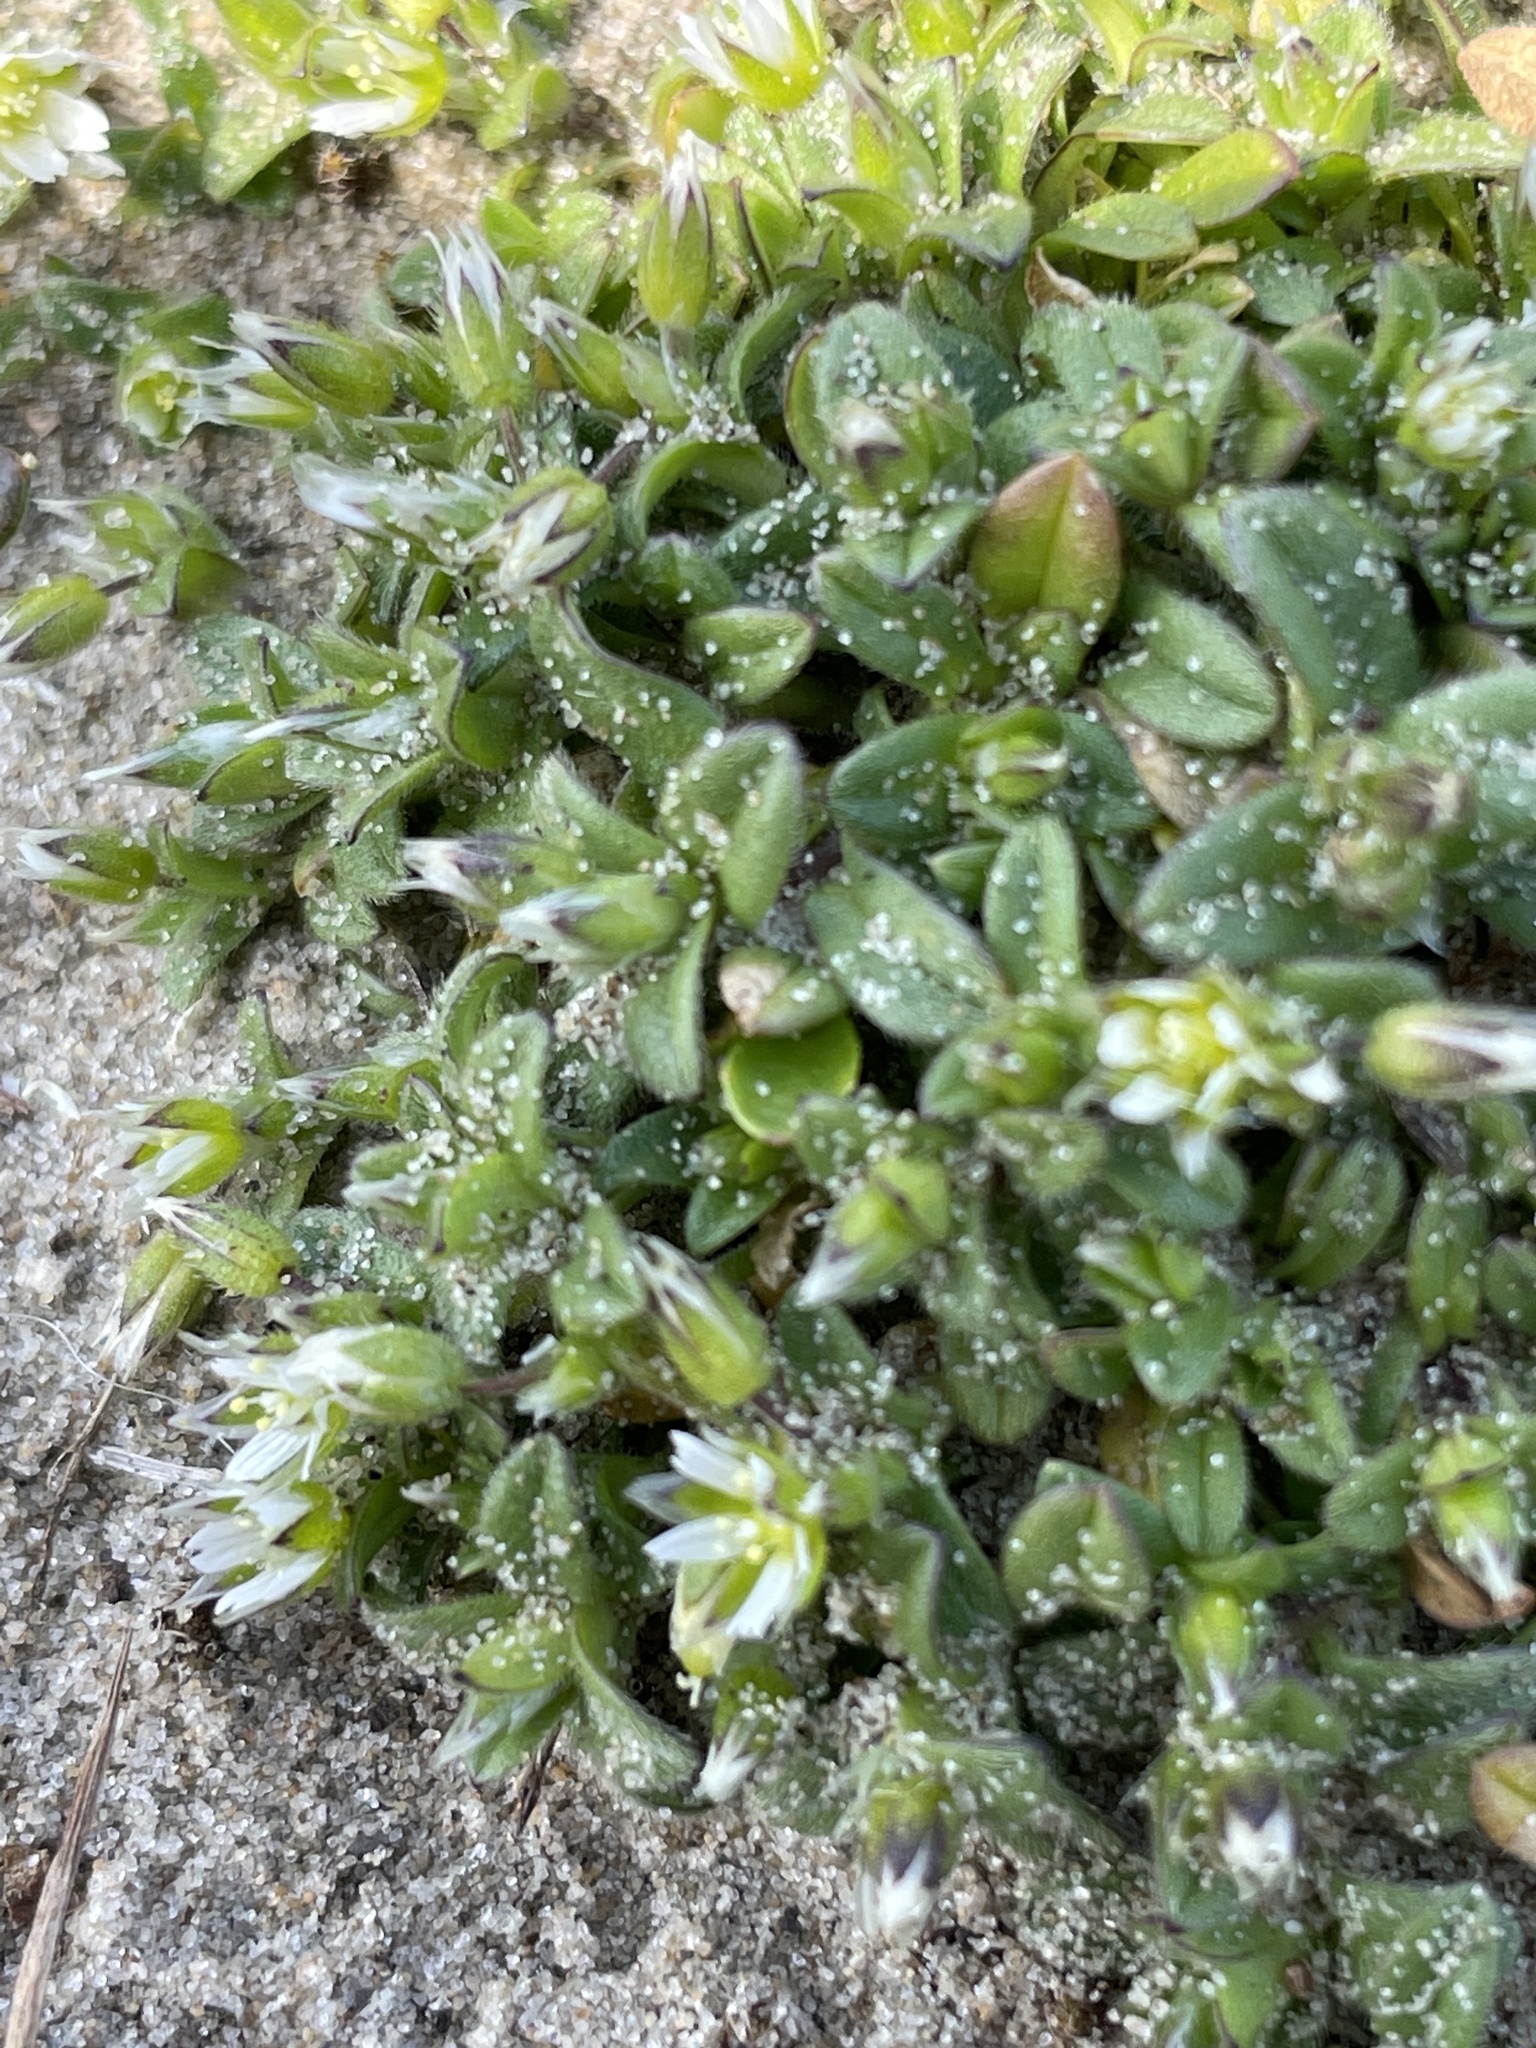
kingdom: Plantae
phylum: Tracheophyta
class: Magnoliopsida
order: Caryophyllales
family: Caryophyllaceae
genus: Cerastium
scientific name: Cerastium semidecandrum
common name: Little mouse-ear
